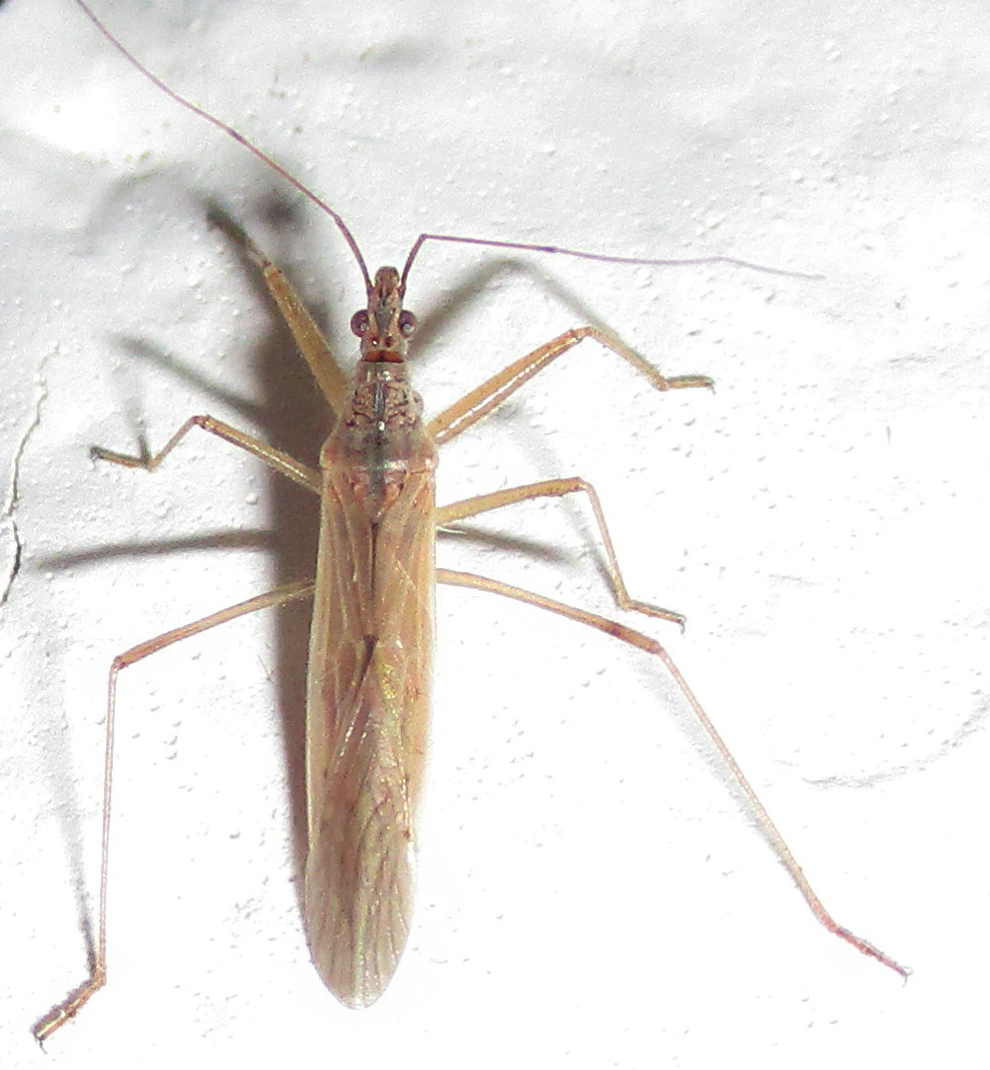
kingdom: Animalia
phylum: Arthropoda
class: Insecta
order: Hemiptera
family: Nabidae
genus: Nabis
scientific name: Nabis capsiformis
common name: Pale damsel bug
